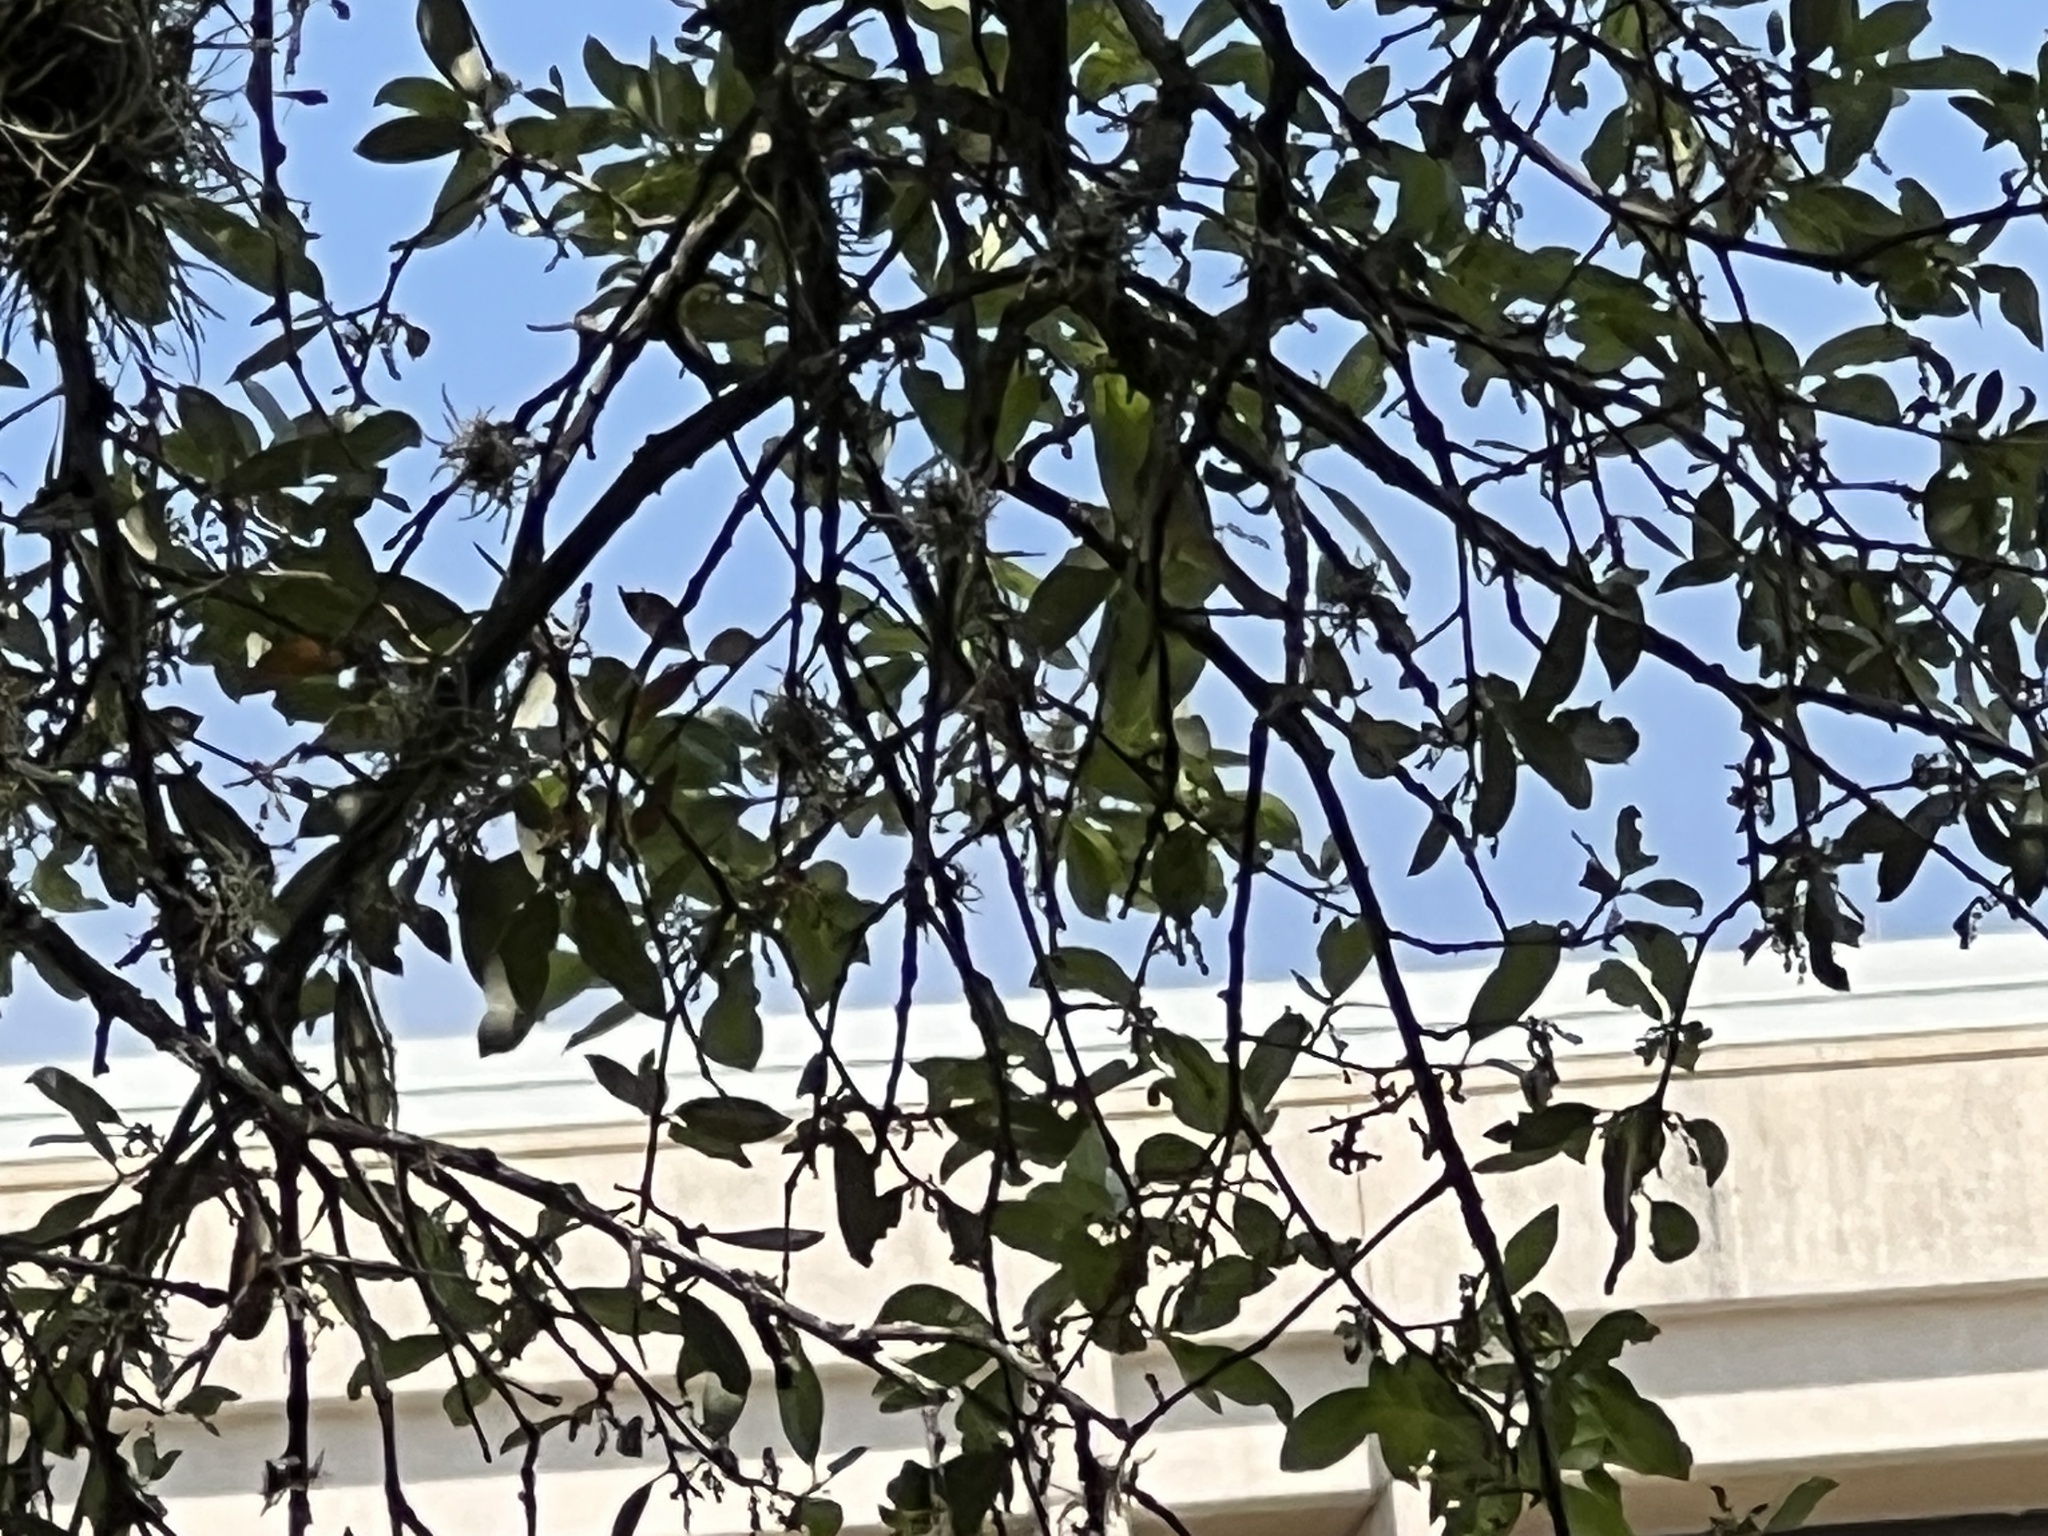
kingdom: Animalia
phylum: Chordata
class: Aves
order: Passeriformes
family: Parulidae
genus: Leiothlypis
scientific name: Leiothlypis celata
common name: Orange-crowned warbler
